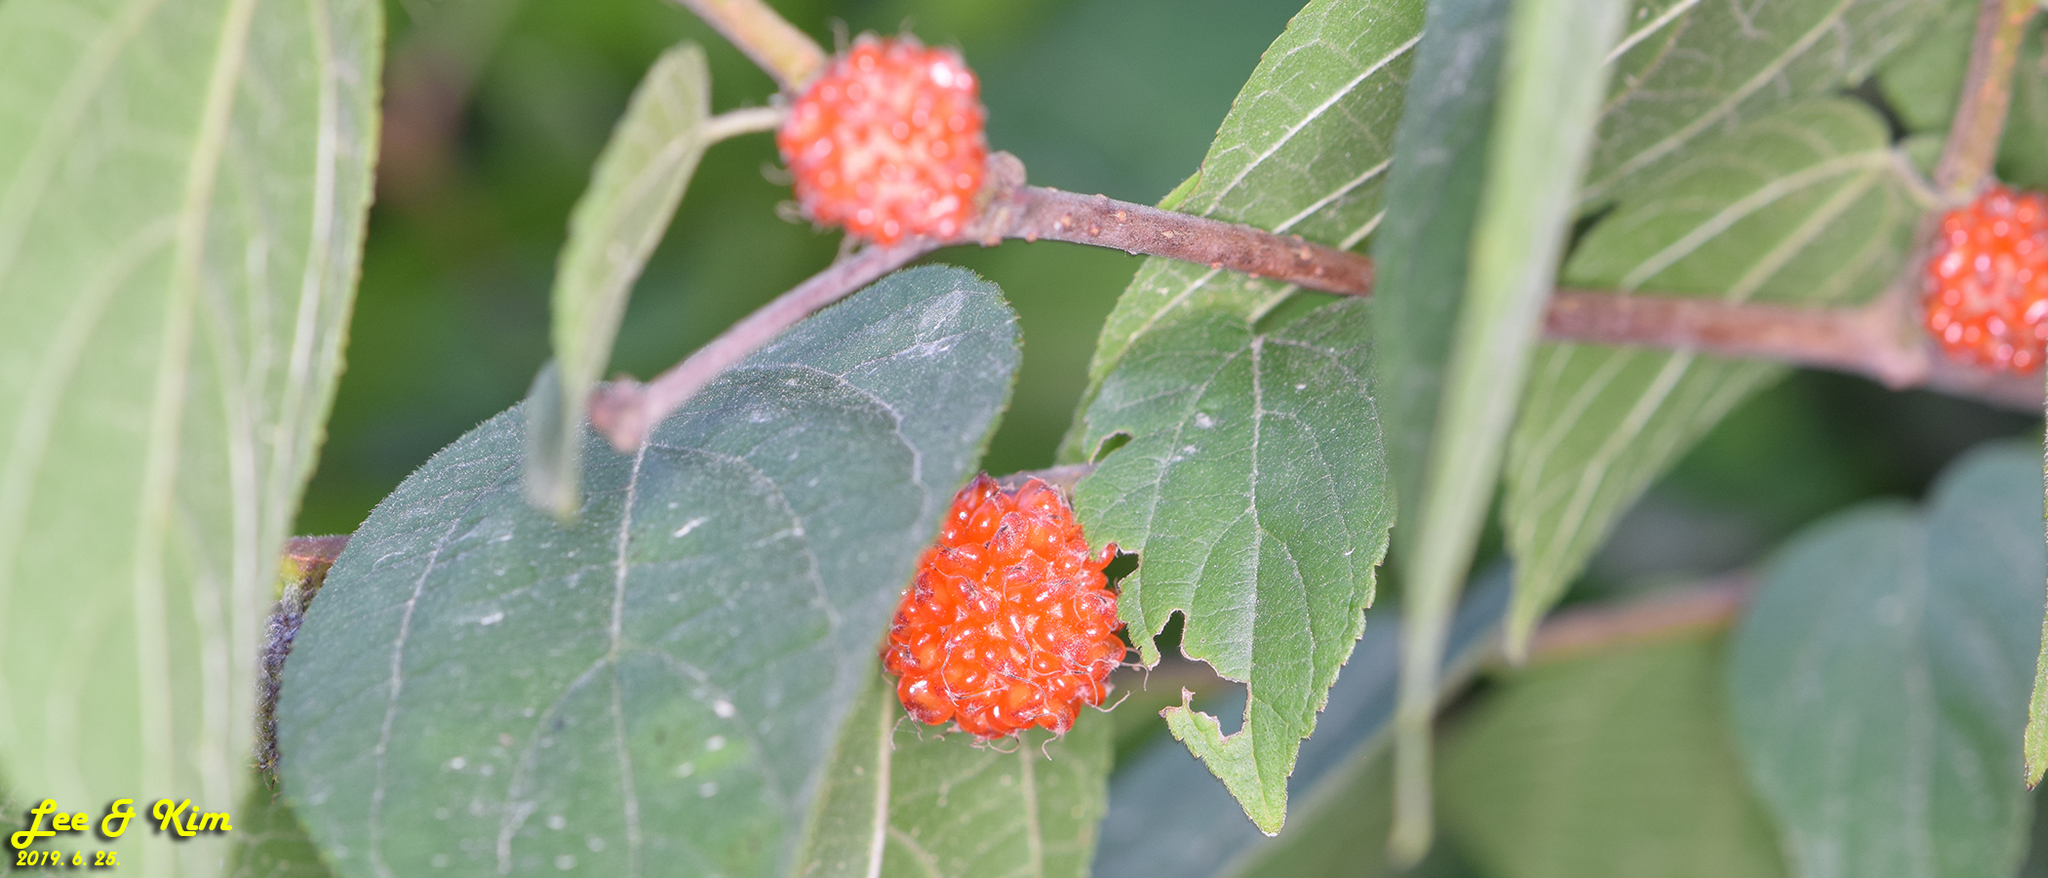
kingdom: Plantae
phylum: Tracheophyta
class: Magnoliopsida
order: Rosales
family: Moraceae
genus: Broussonetia
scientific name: Broussonetia papyrifera
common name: Paper mulberry
